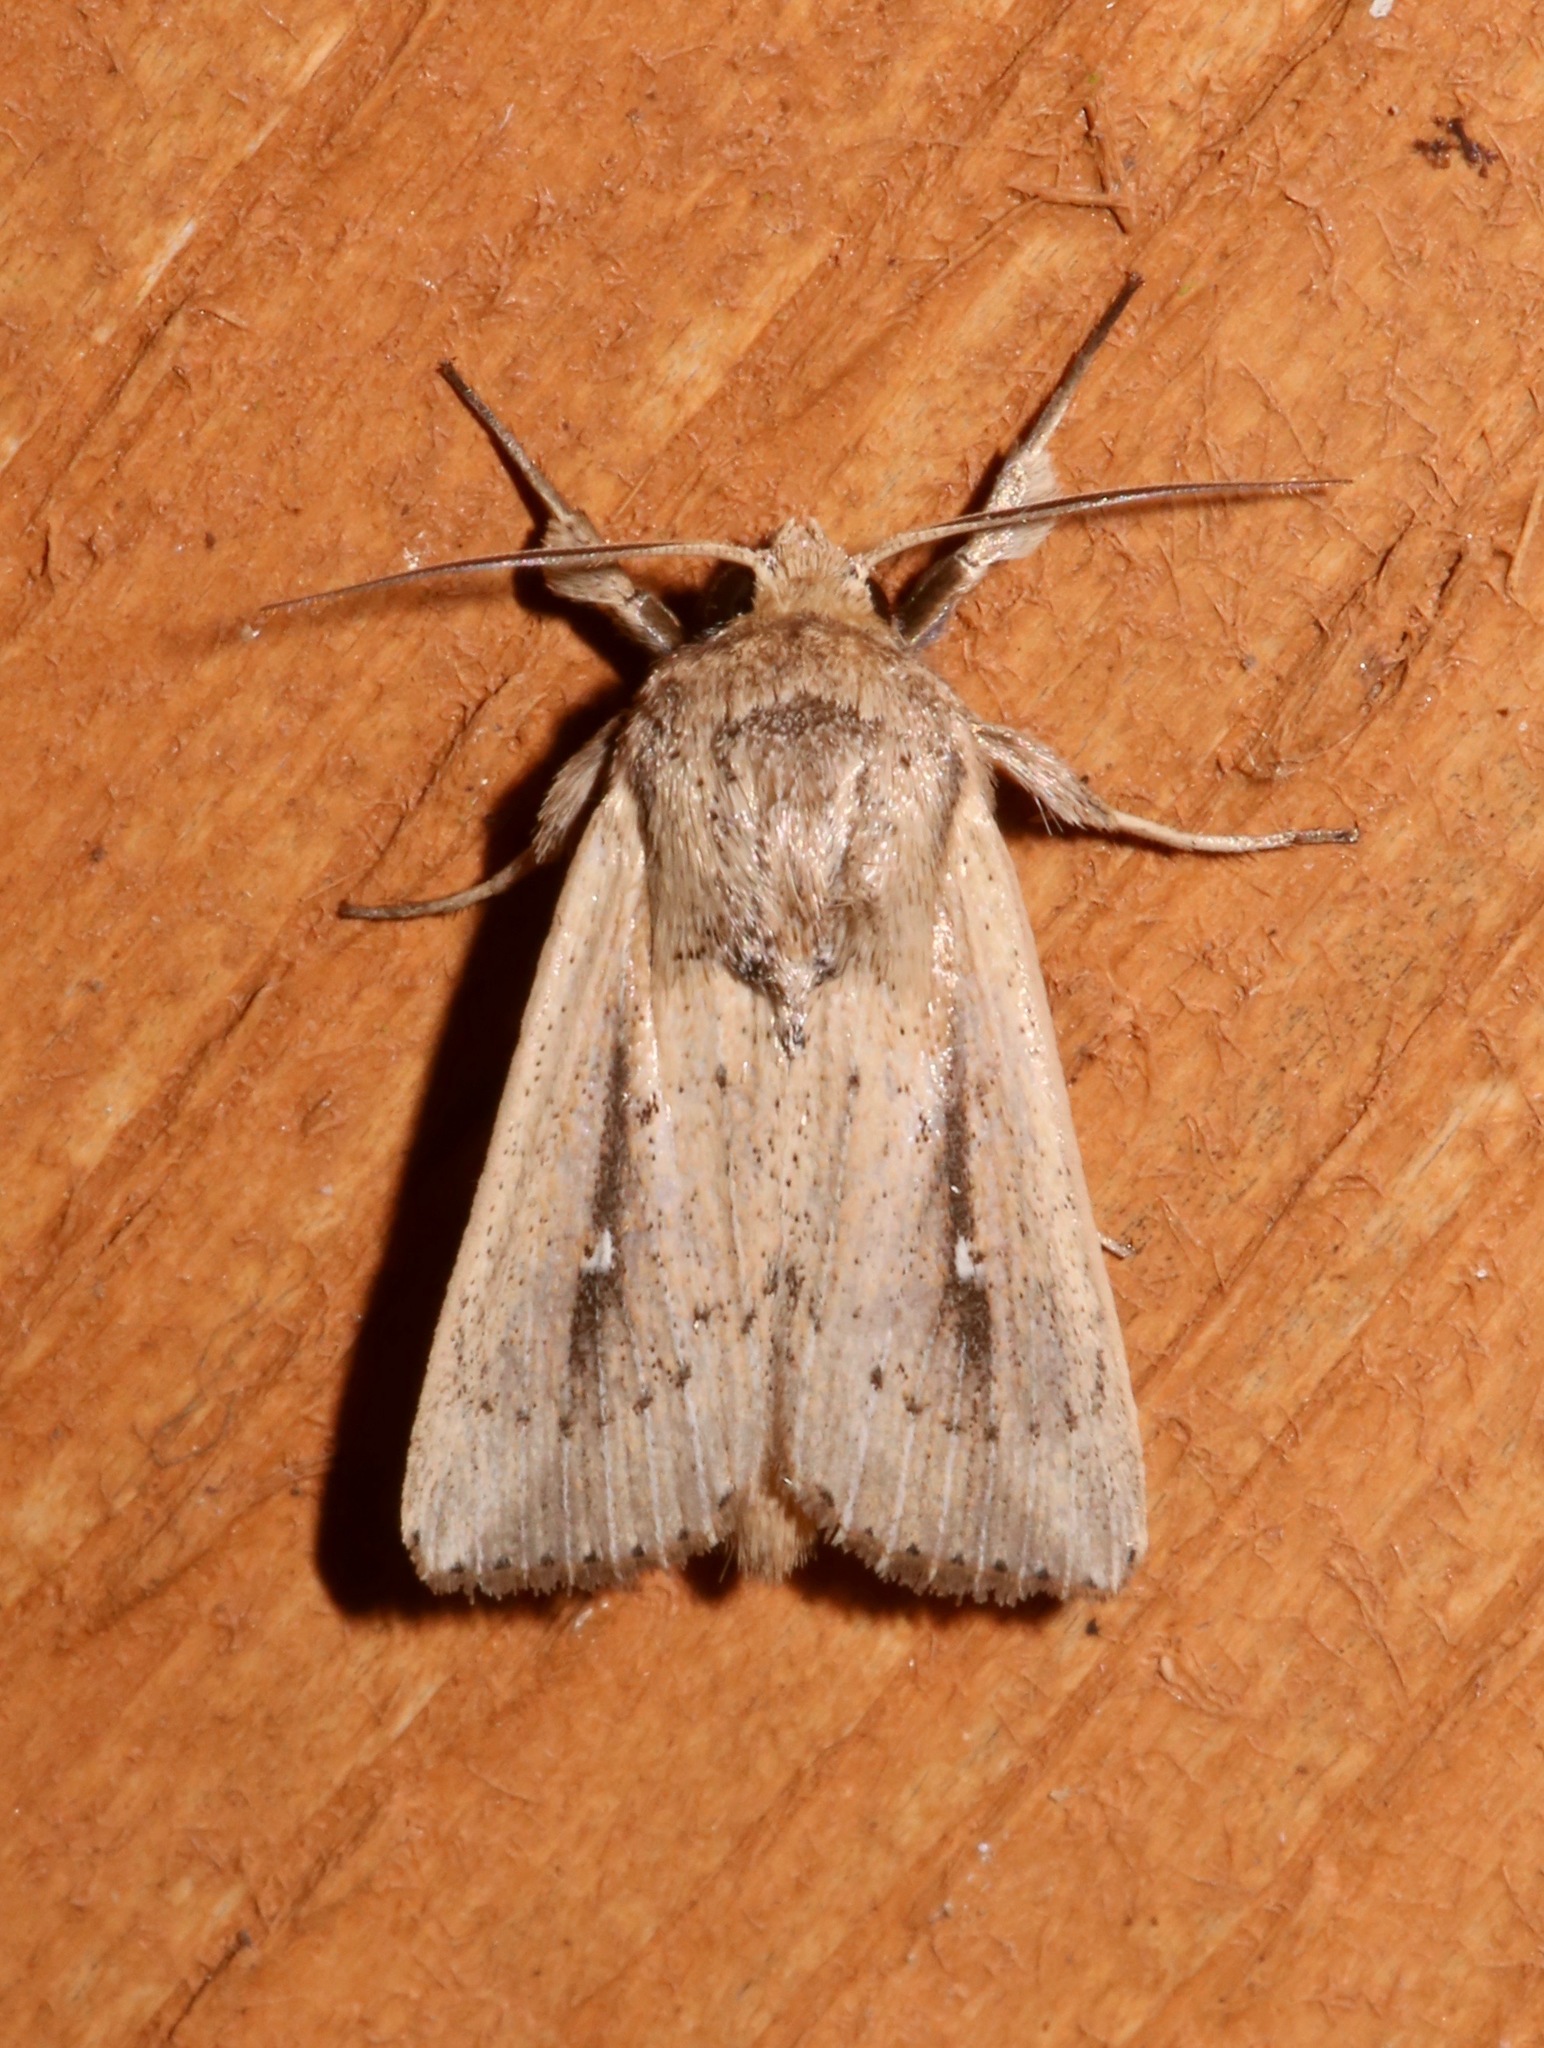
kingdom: Animalia
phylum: Arthropoda
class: Insecta
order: Lepidoptera
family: Noctuidae
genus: Leucania
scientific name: Leucania incognita
